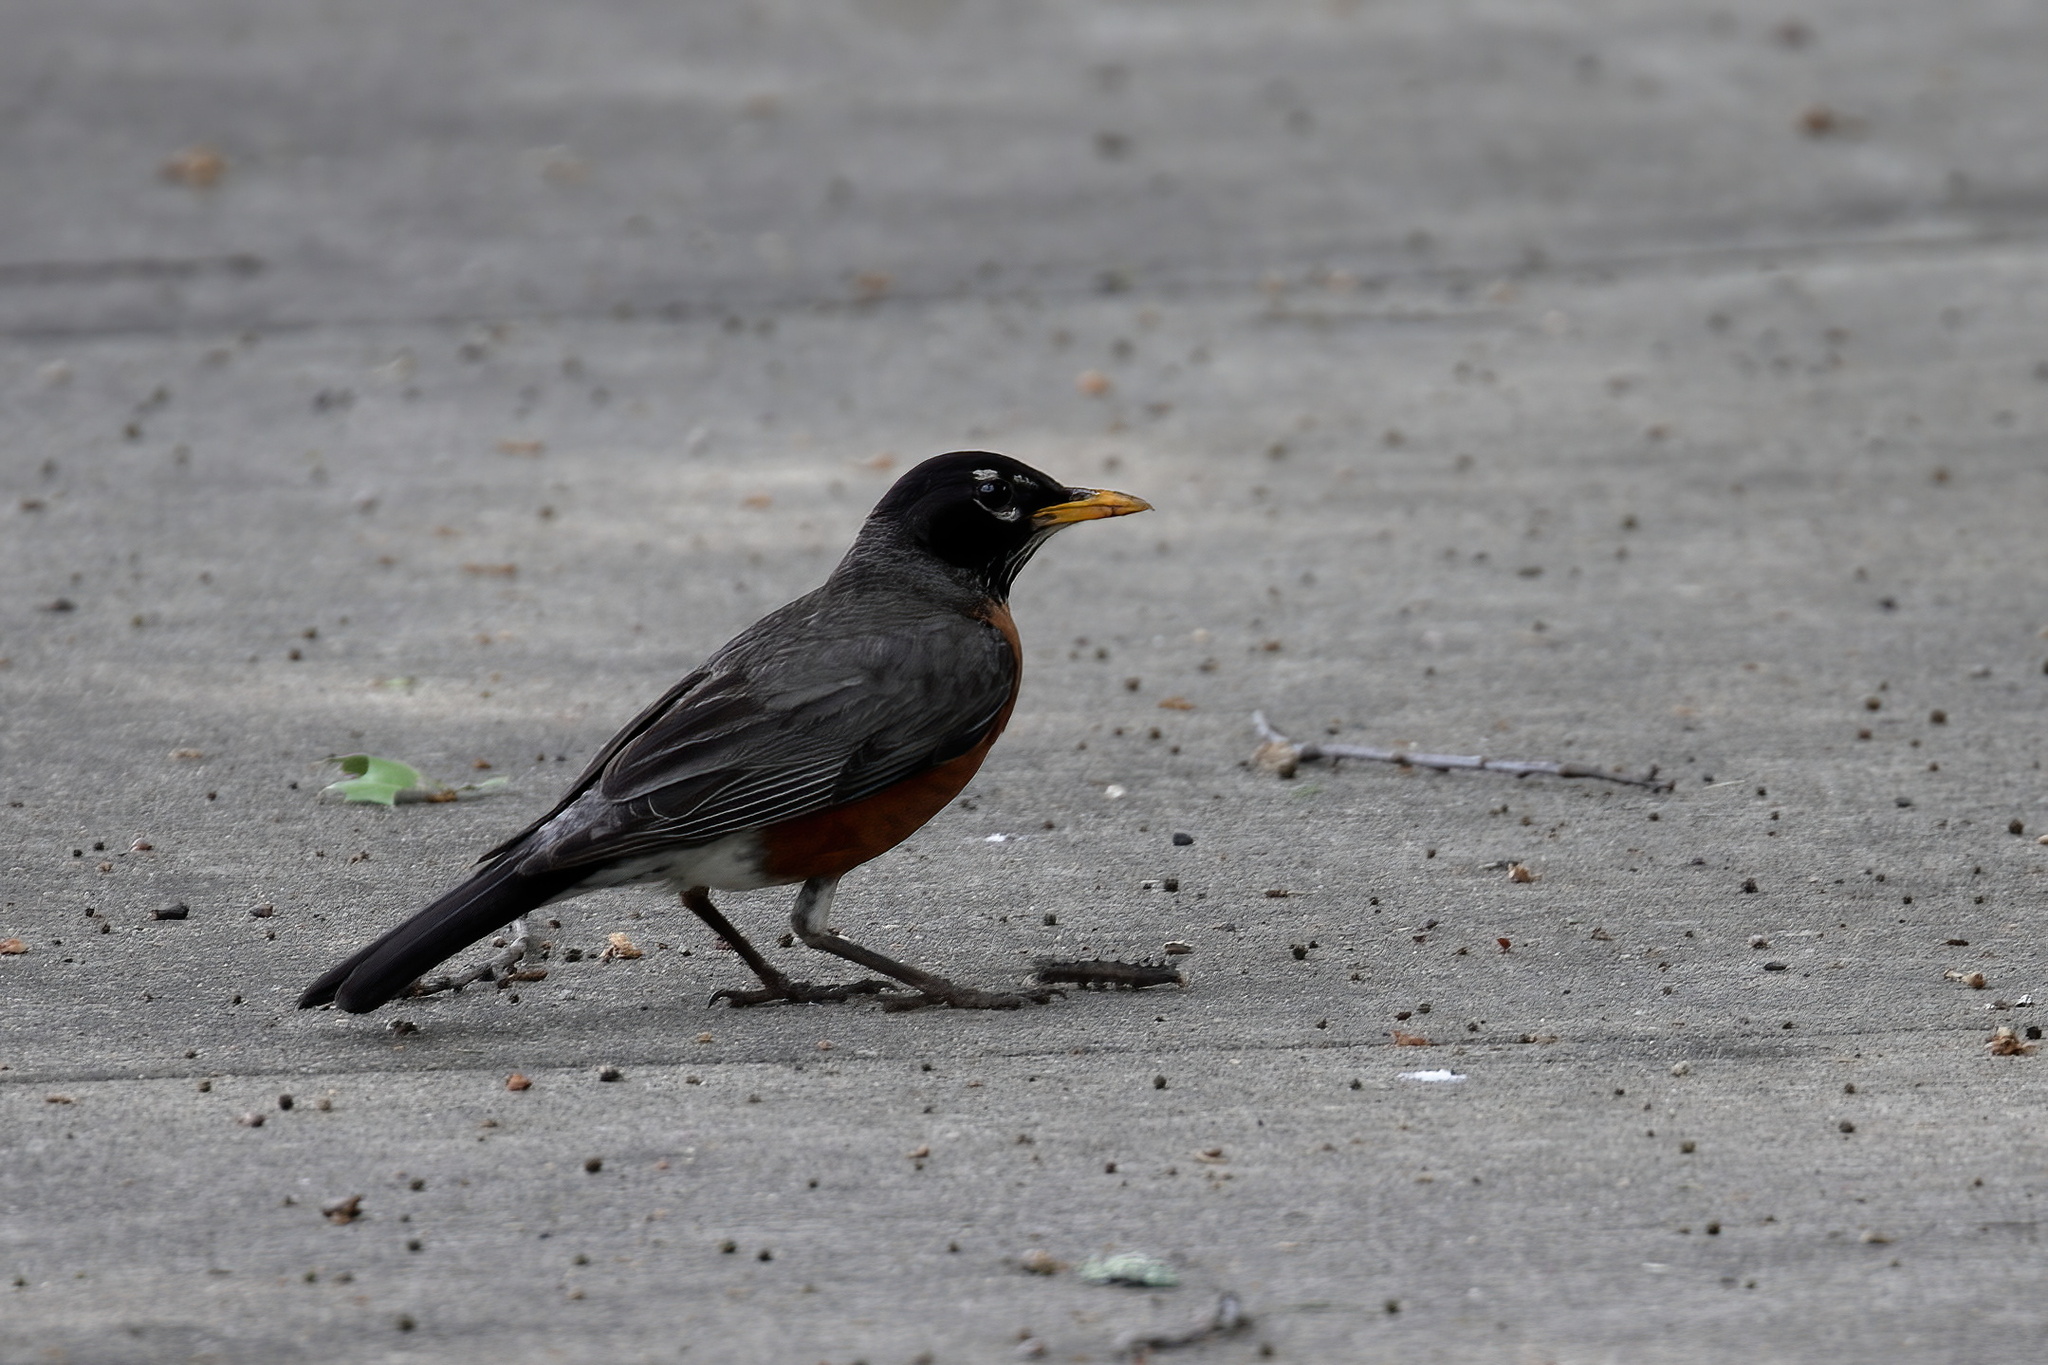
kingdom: Animalia
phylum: Chordata
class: Aves
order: Passeriformes
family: Turdidae
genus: Turdus
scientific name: Turdus migratorius
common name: American robin
